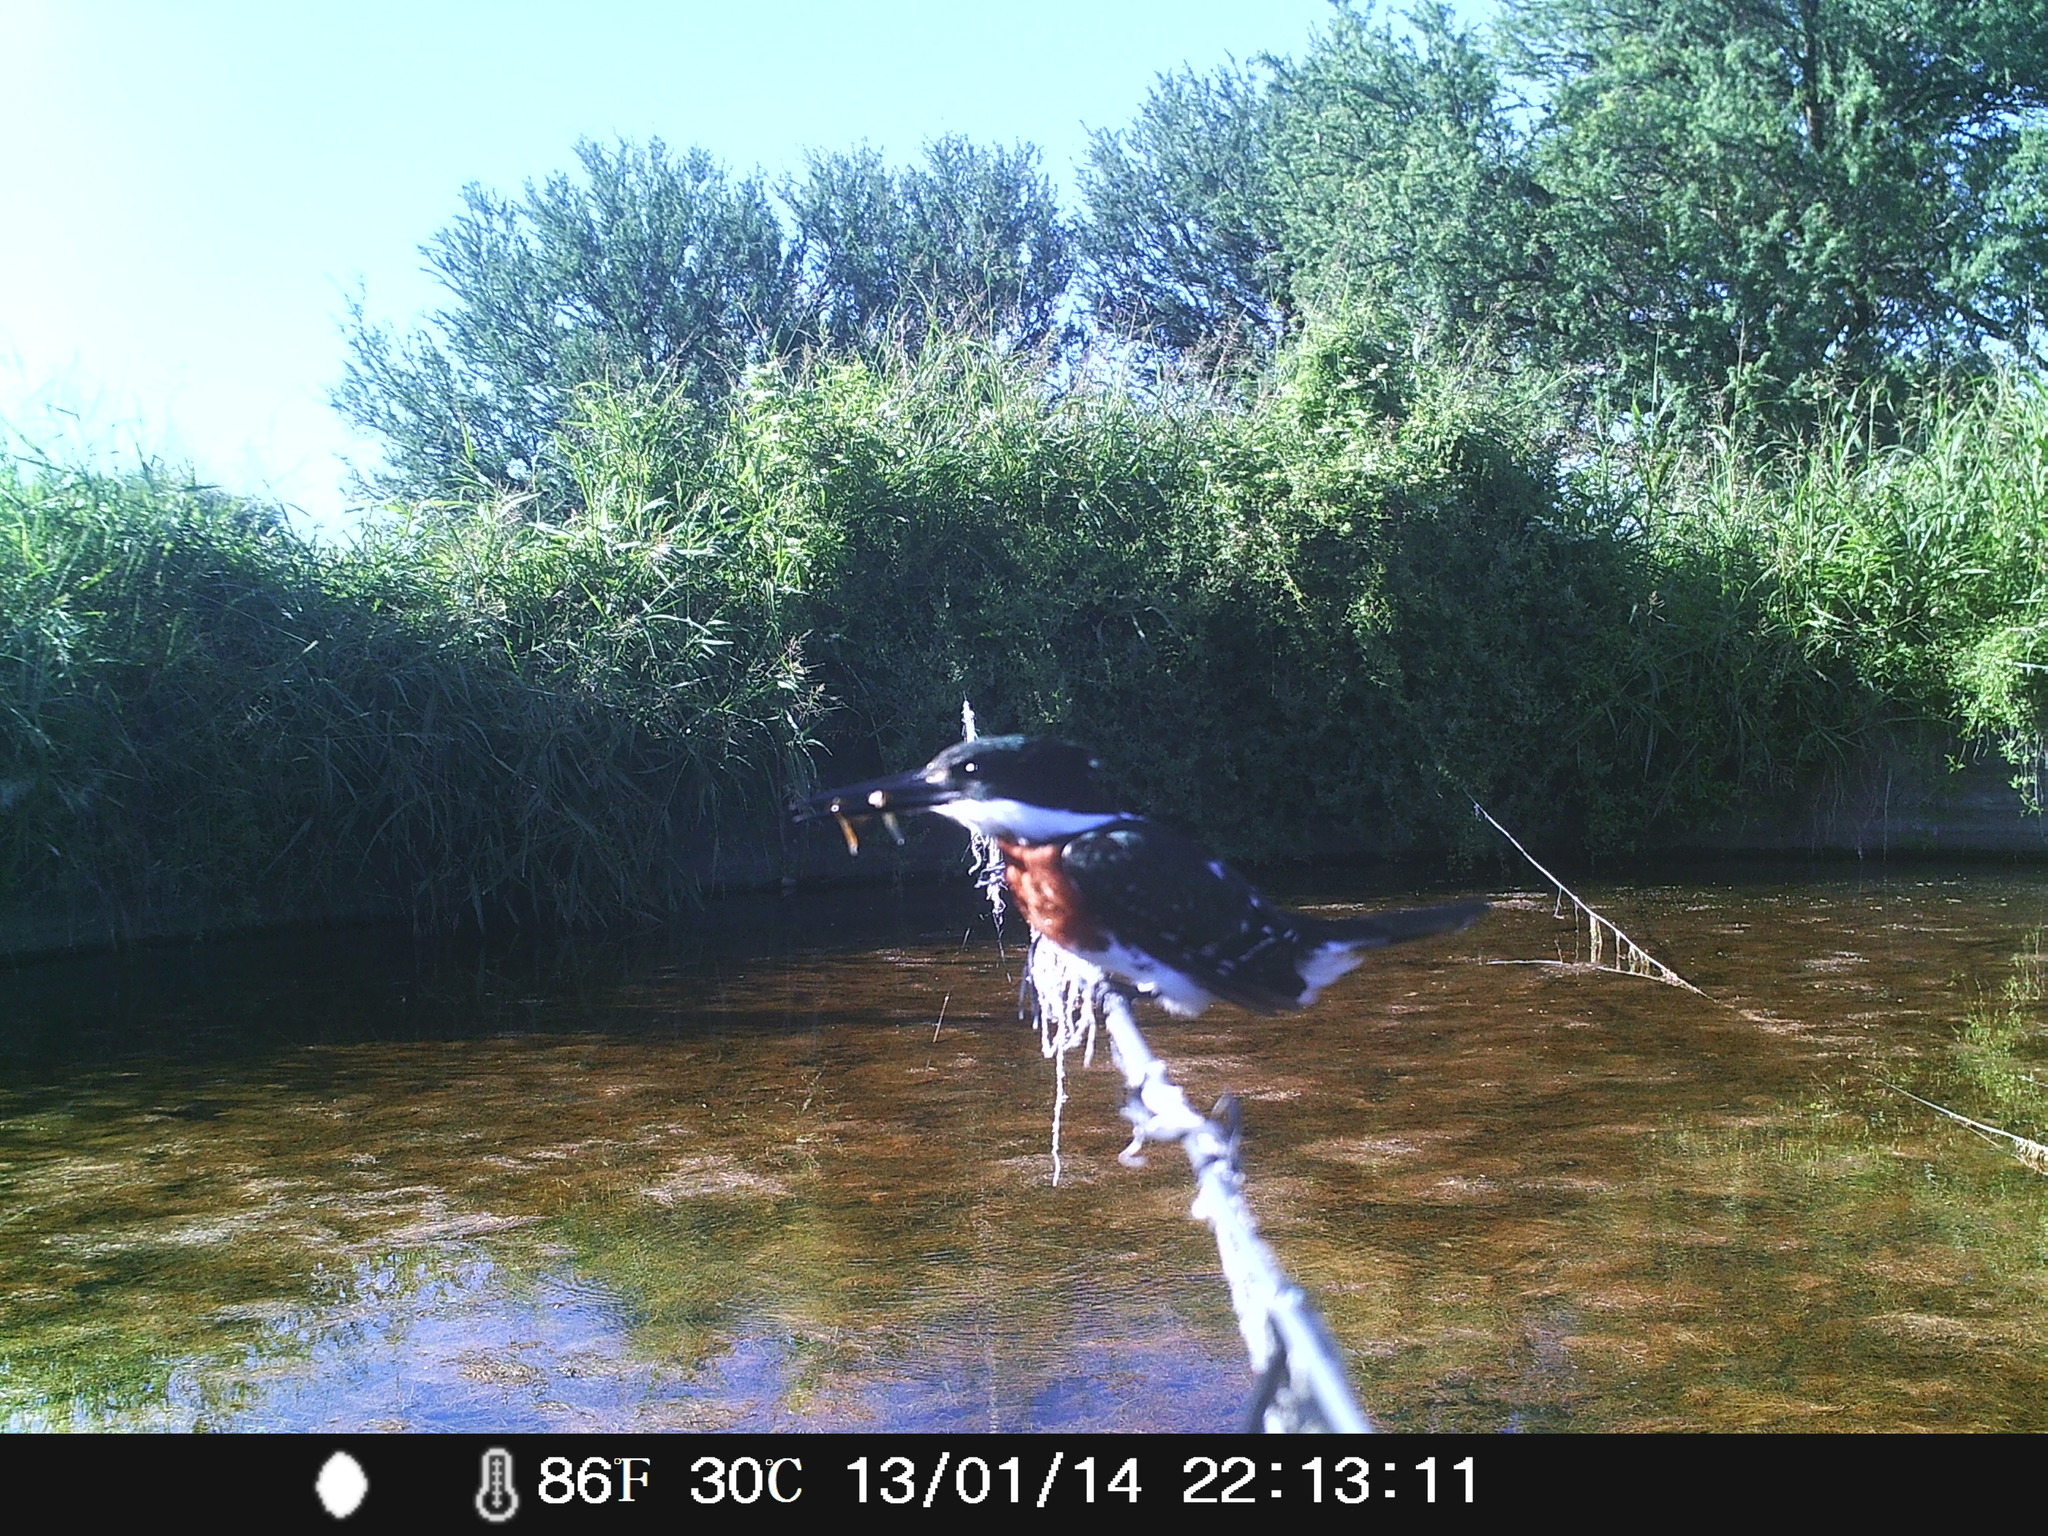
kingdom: Animalia
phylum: Chordata
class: Aves
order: Coraciiformes
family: Alcedinidae
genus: Chloroceryle
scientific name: Chloroceryle americana
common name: Green kingfisher
